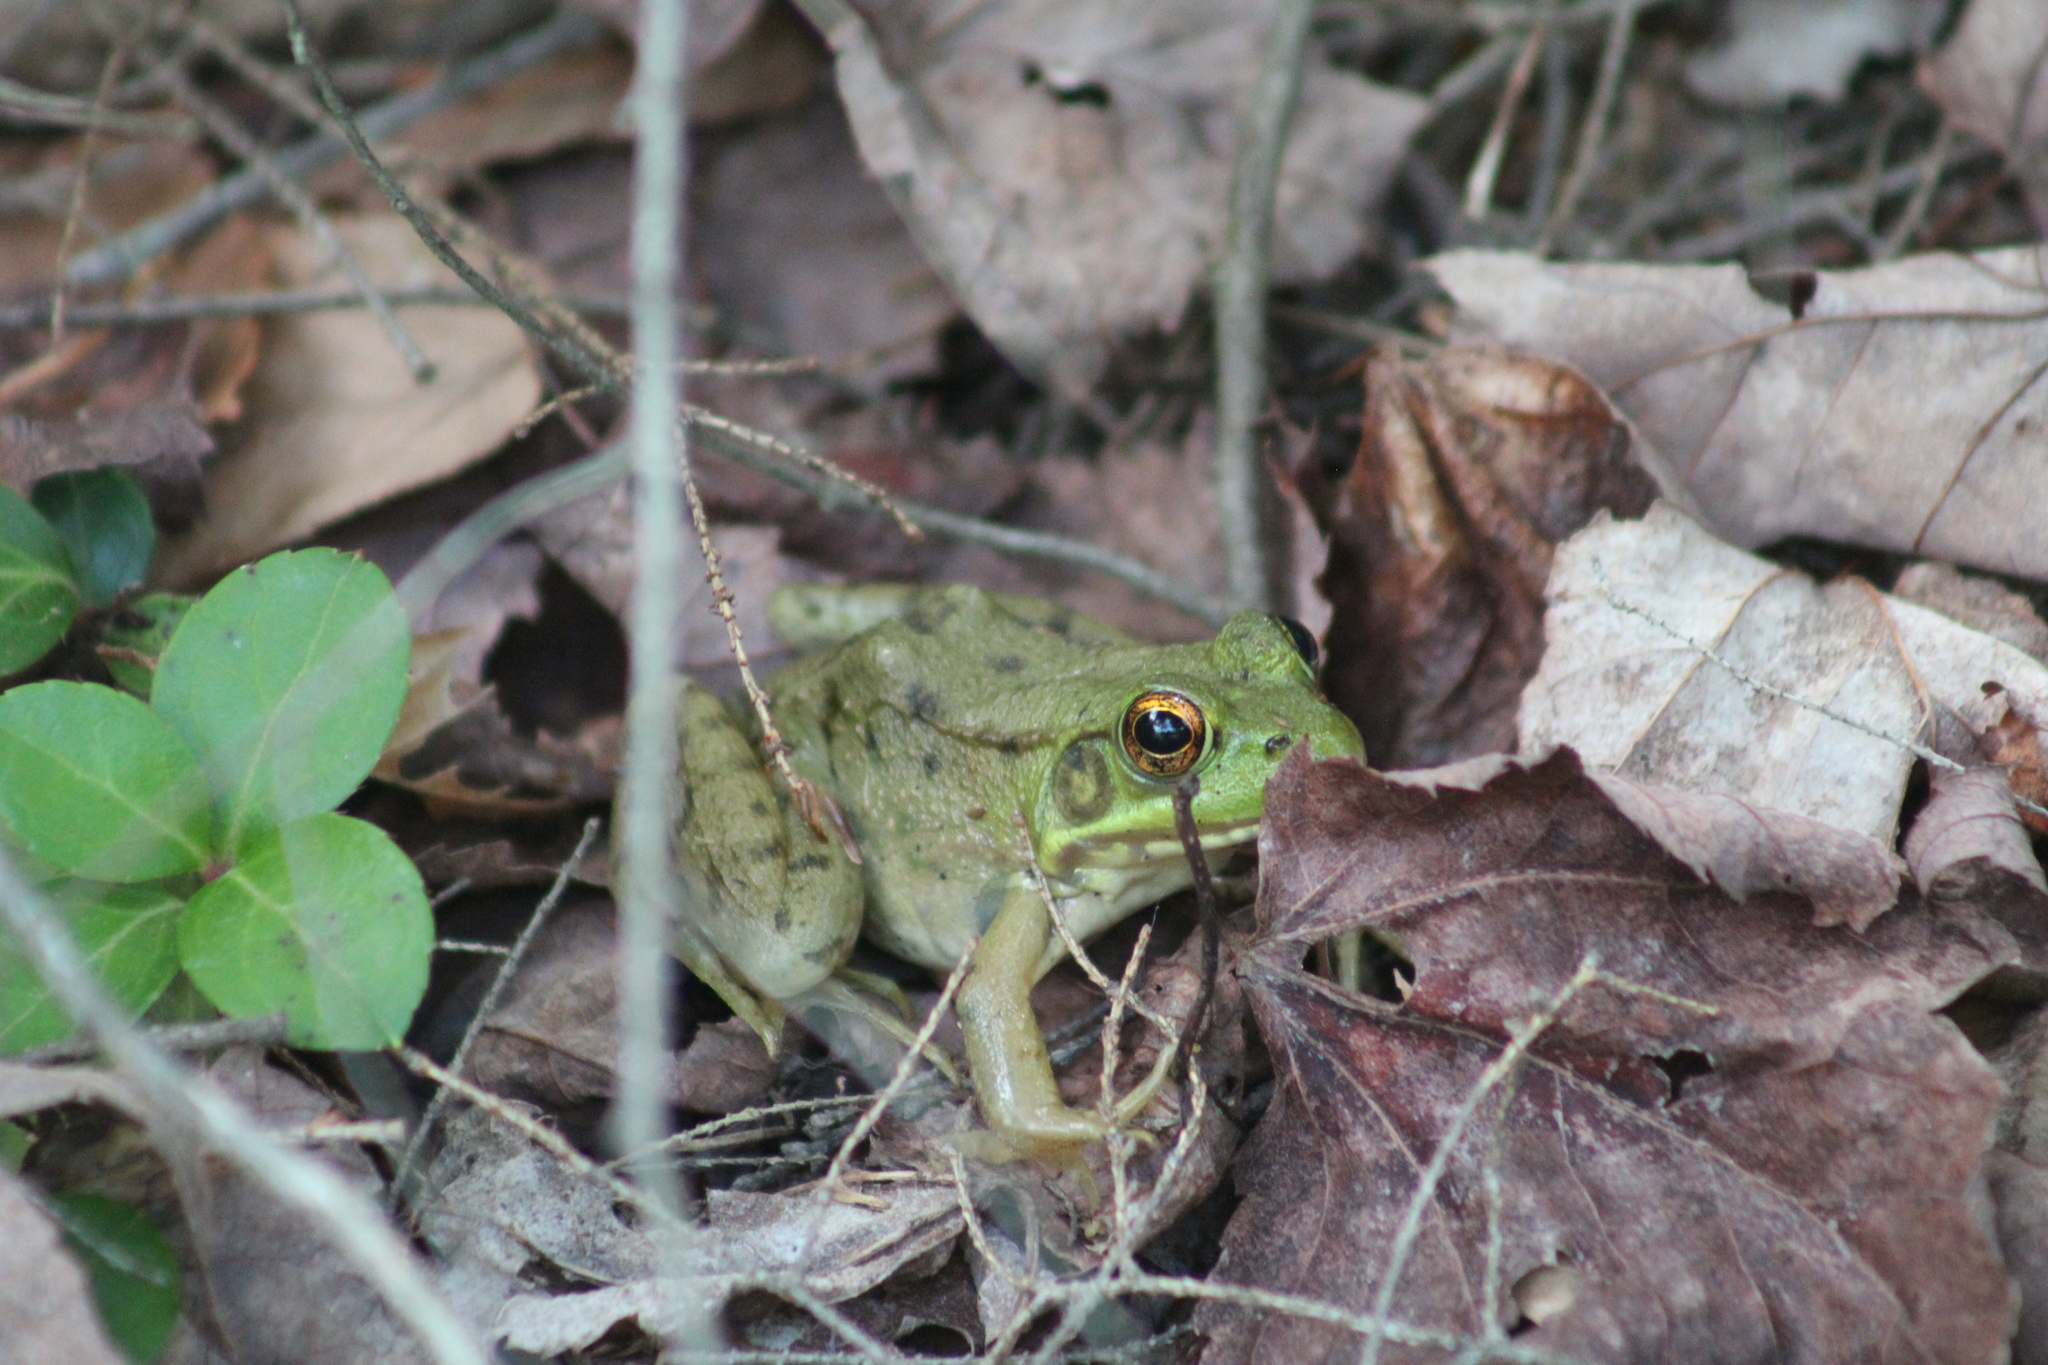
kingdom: Animalia
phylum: Chordata
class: Amphibia
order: Anura
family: Ranidae
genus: Lithobates
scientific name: Lithobates clamitans
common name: Green frog
